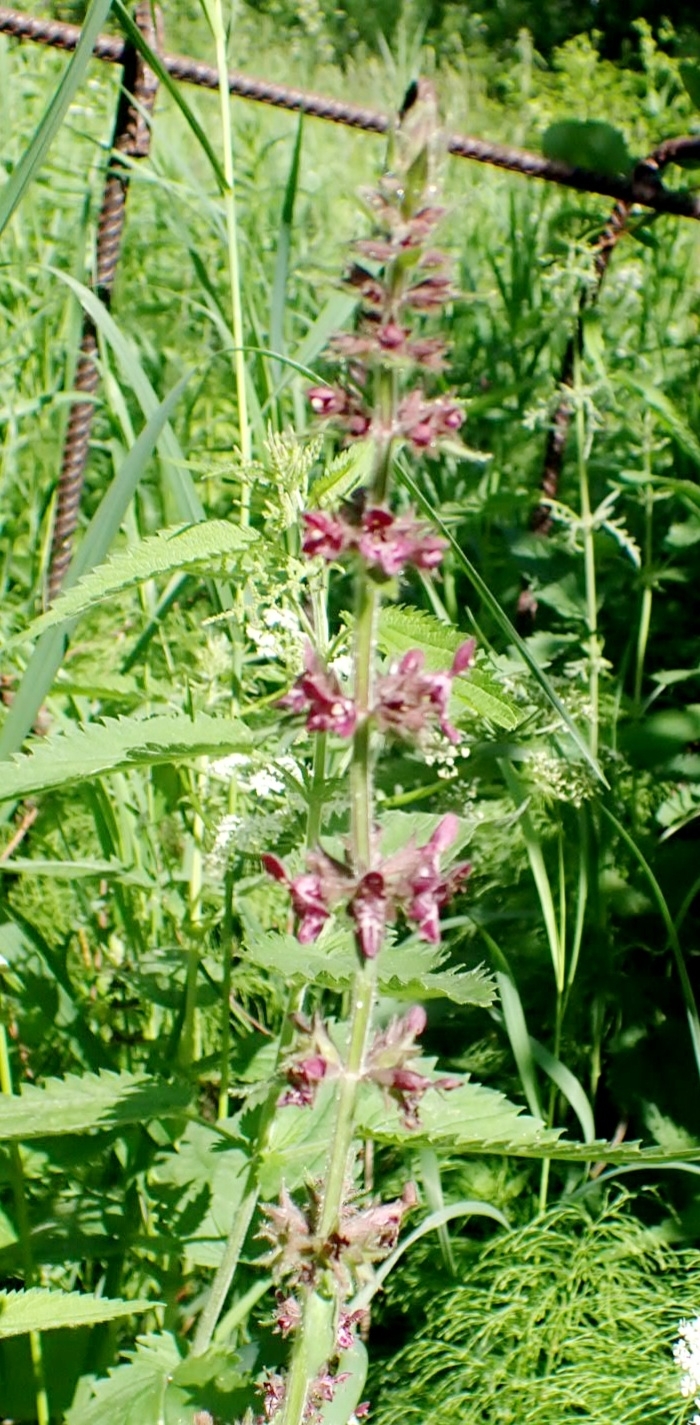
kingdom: Plantae
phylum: Tracheophyta
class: Magnoliopsida
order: Lamiales
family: Lamiaceae
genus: Stachys
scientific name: Stachys sylvatica
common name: Hedge woundwort
